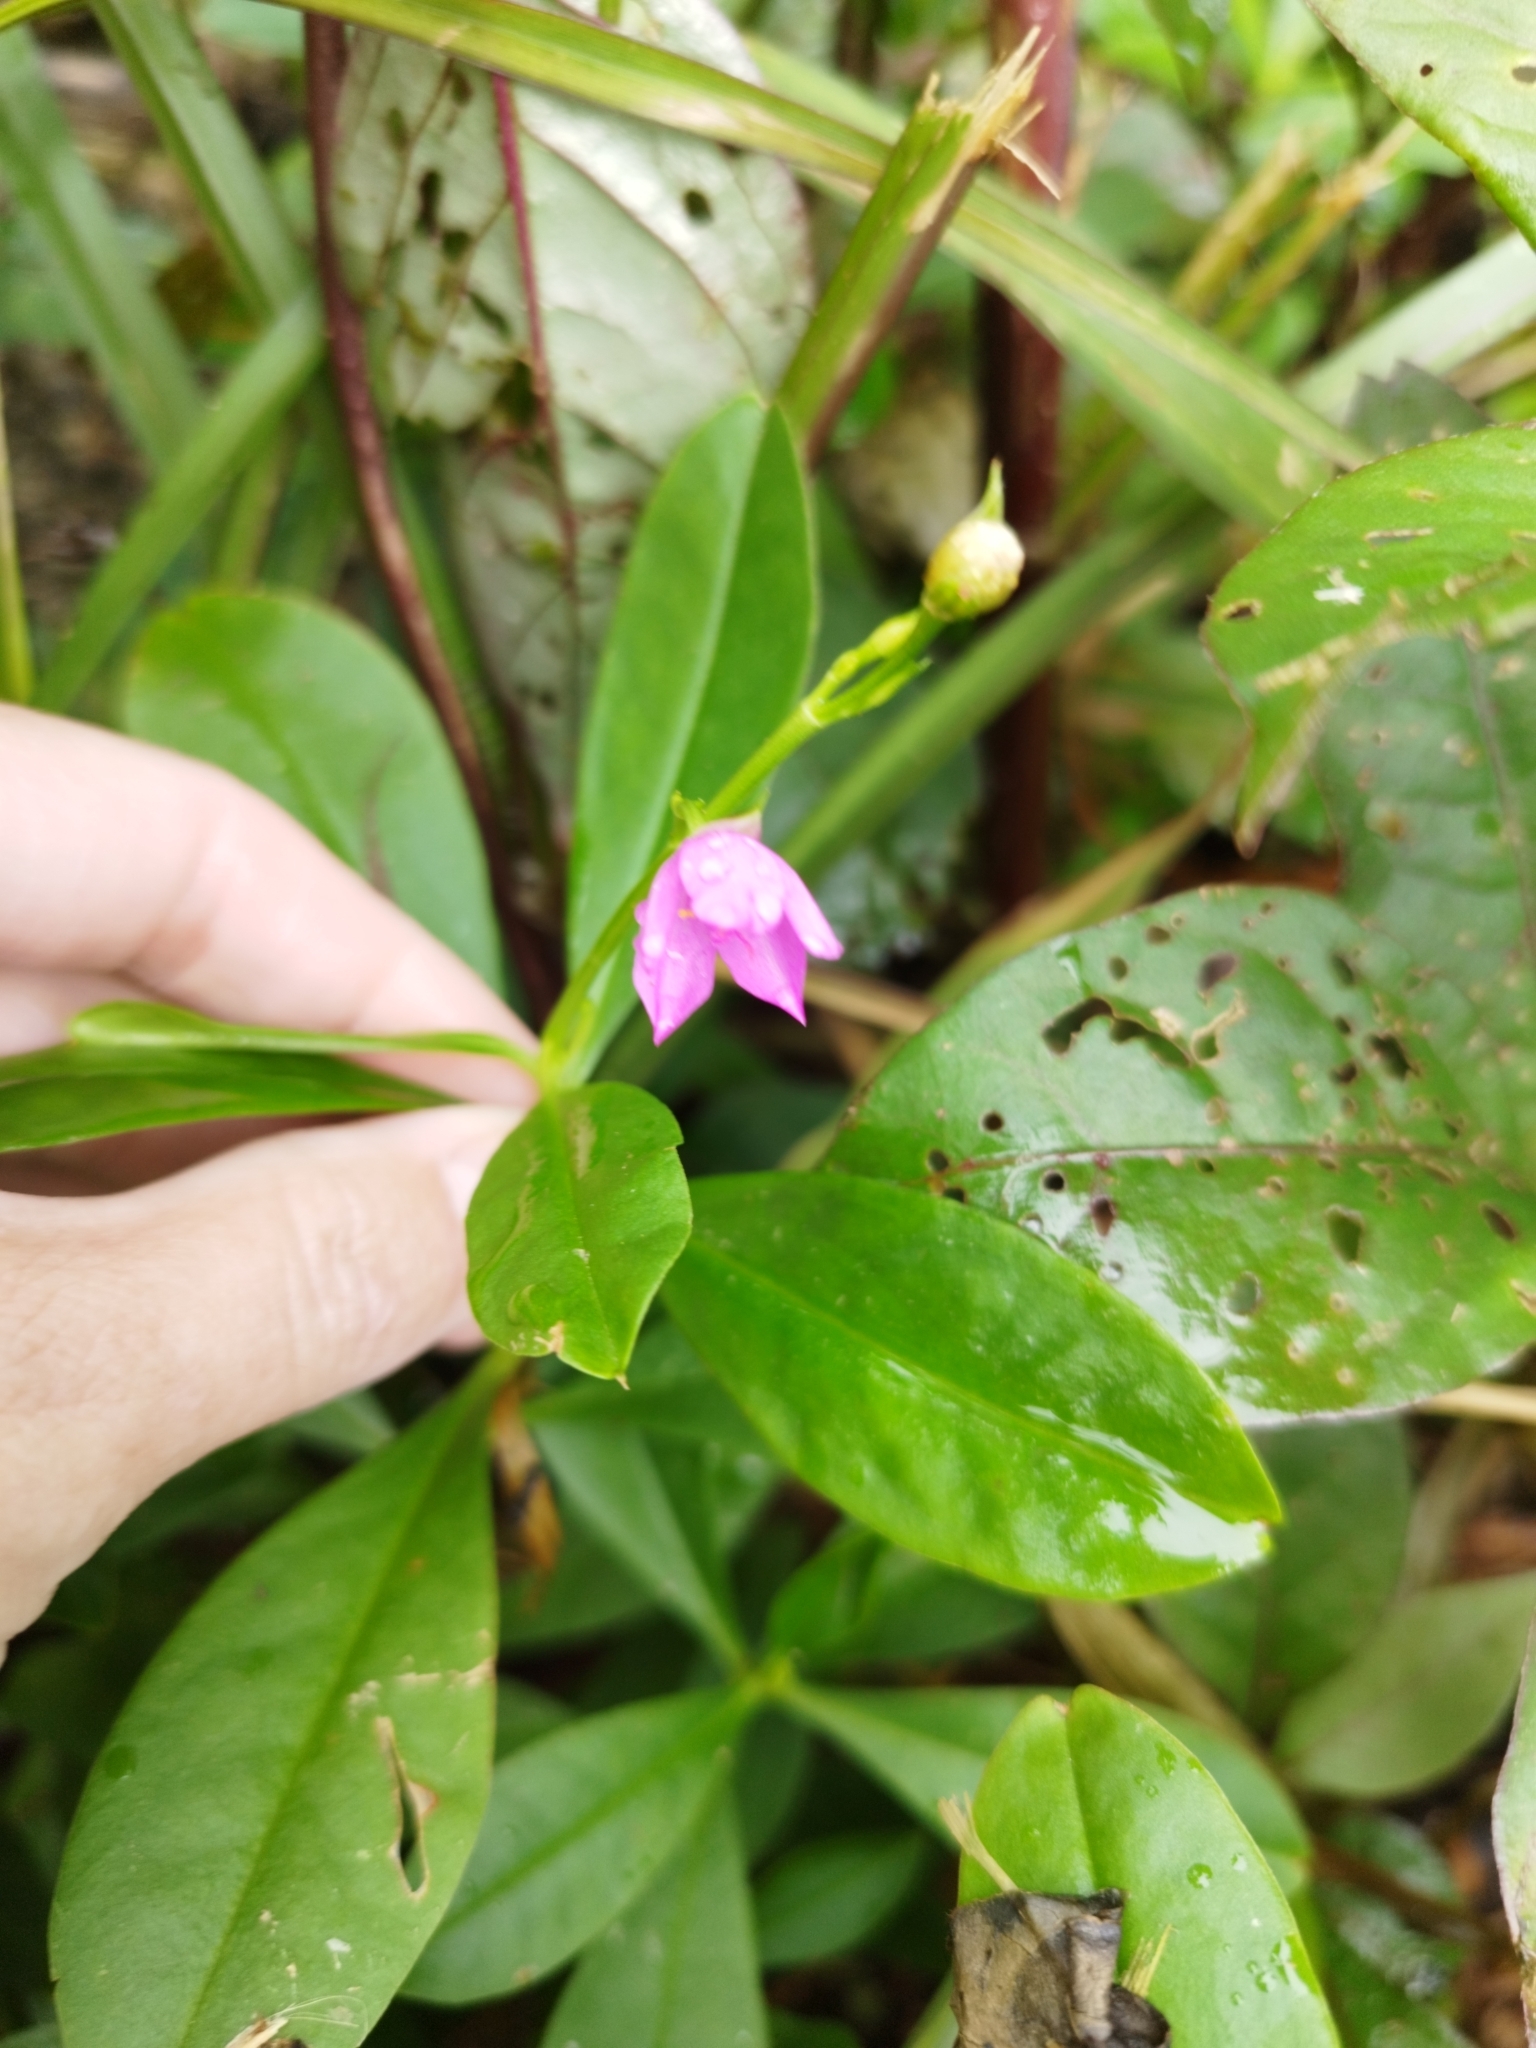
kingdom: Plantae
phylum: Tracheophyta
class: Magnoliopsida
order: Caryophyllales
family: Talinaceae
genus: Talinum
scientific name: Talinum fruticosum
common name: Verdolaga-francesa
